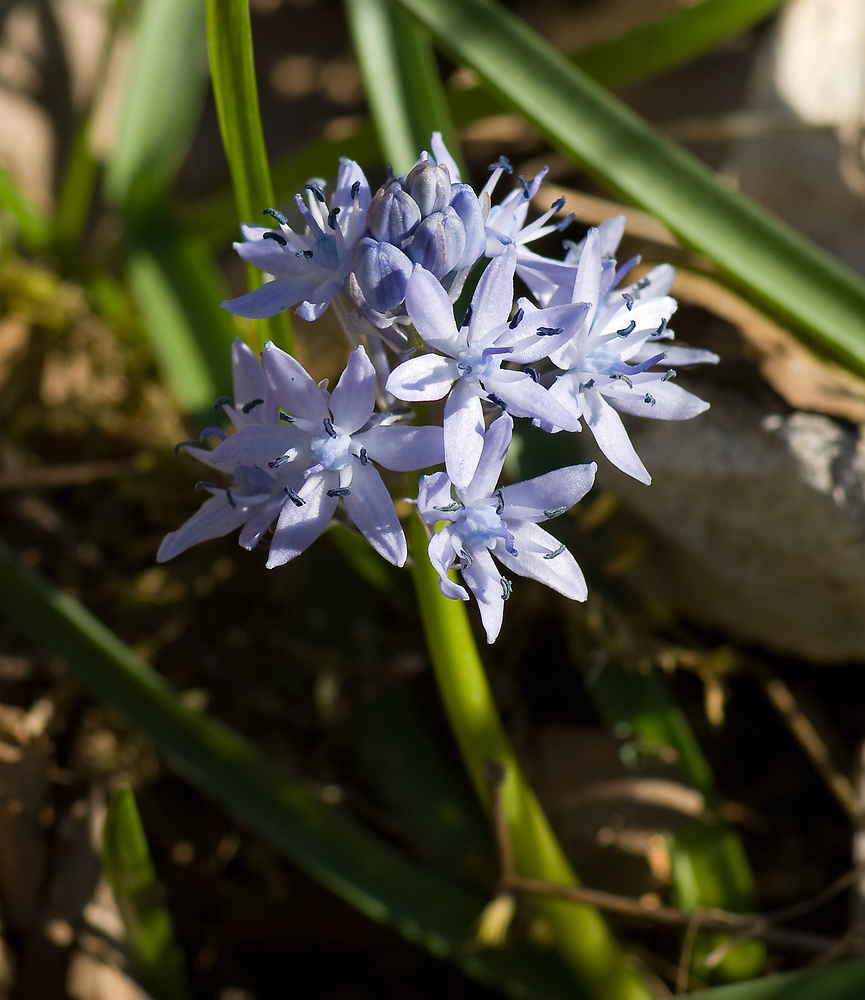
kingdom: Plantae
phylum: Tracheophyta
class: Liliopsida
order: Asparagales
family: Asparagaceae
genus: Hyacinthoides
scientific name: Hyacinthoides italica
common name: Italian bluebell
